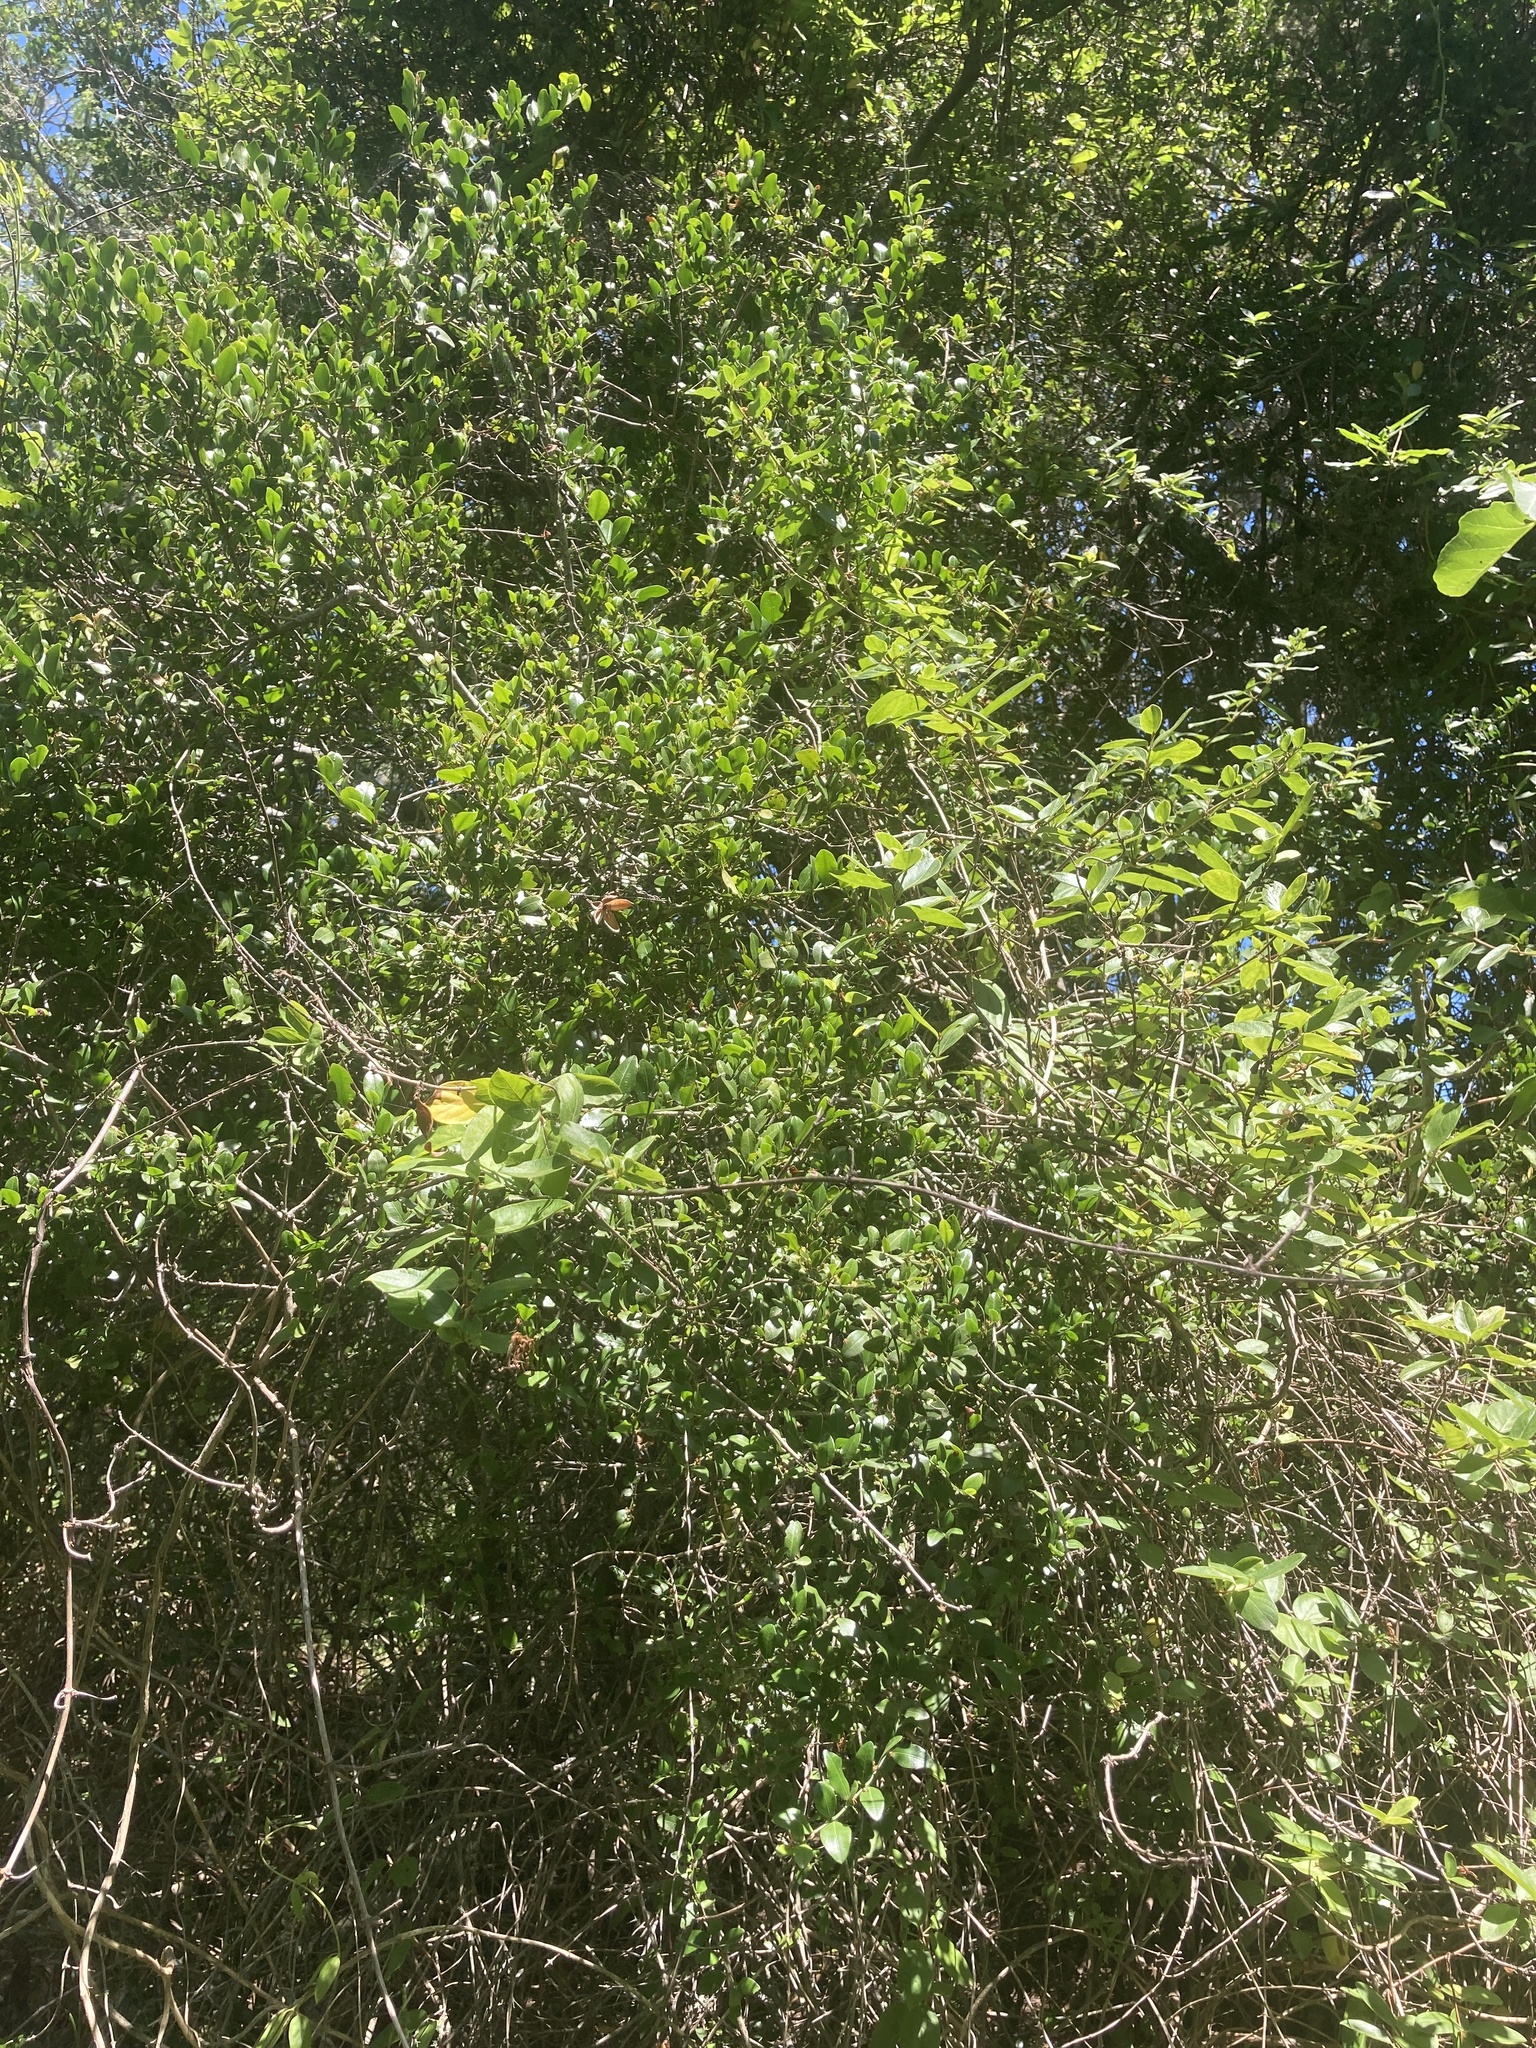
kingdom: Plantae
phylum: Tracheophyta
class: Magnoliopsida
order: Rosales
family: Rhamnaceae
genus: Scutia
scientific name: Scutia buxifolia
